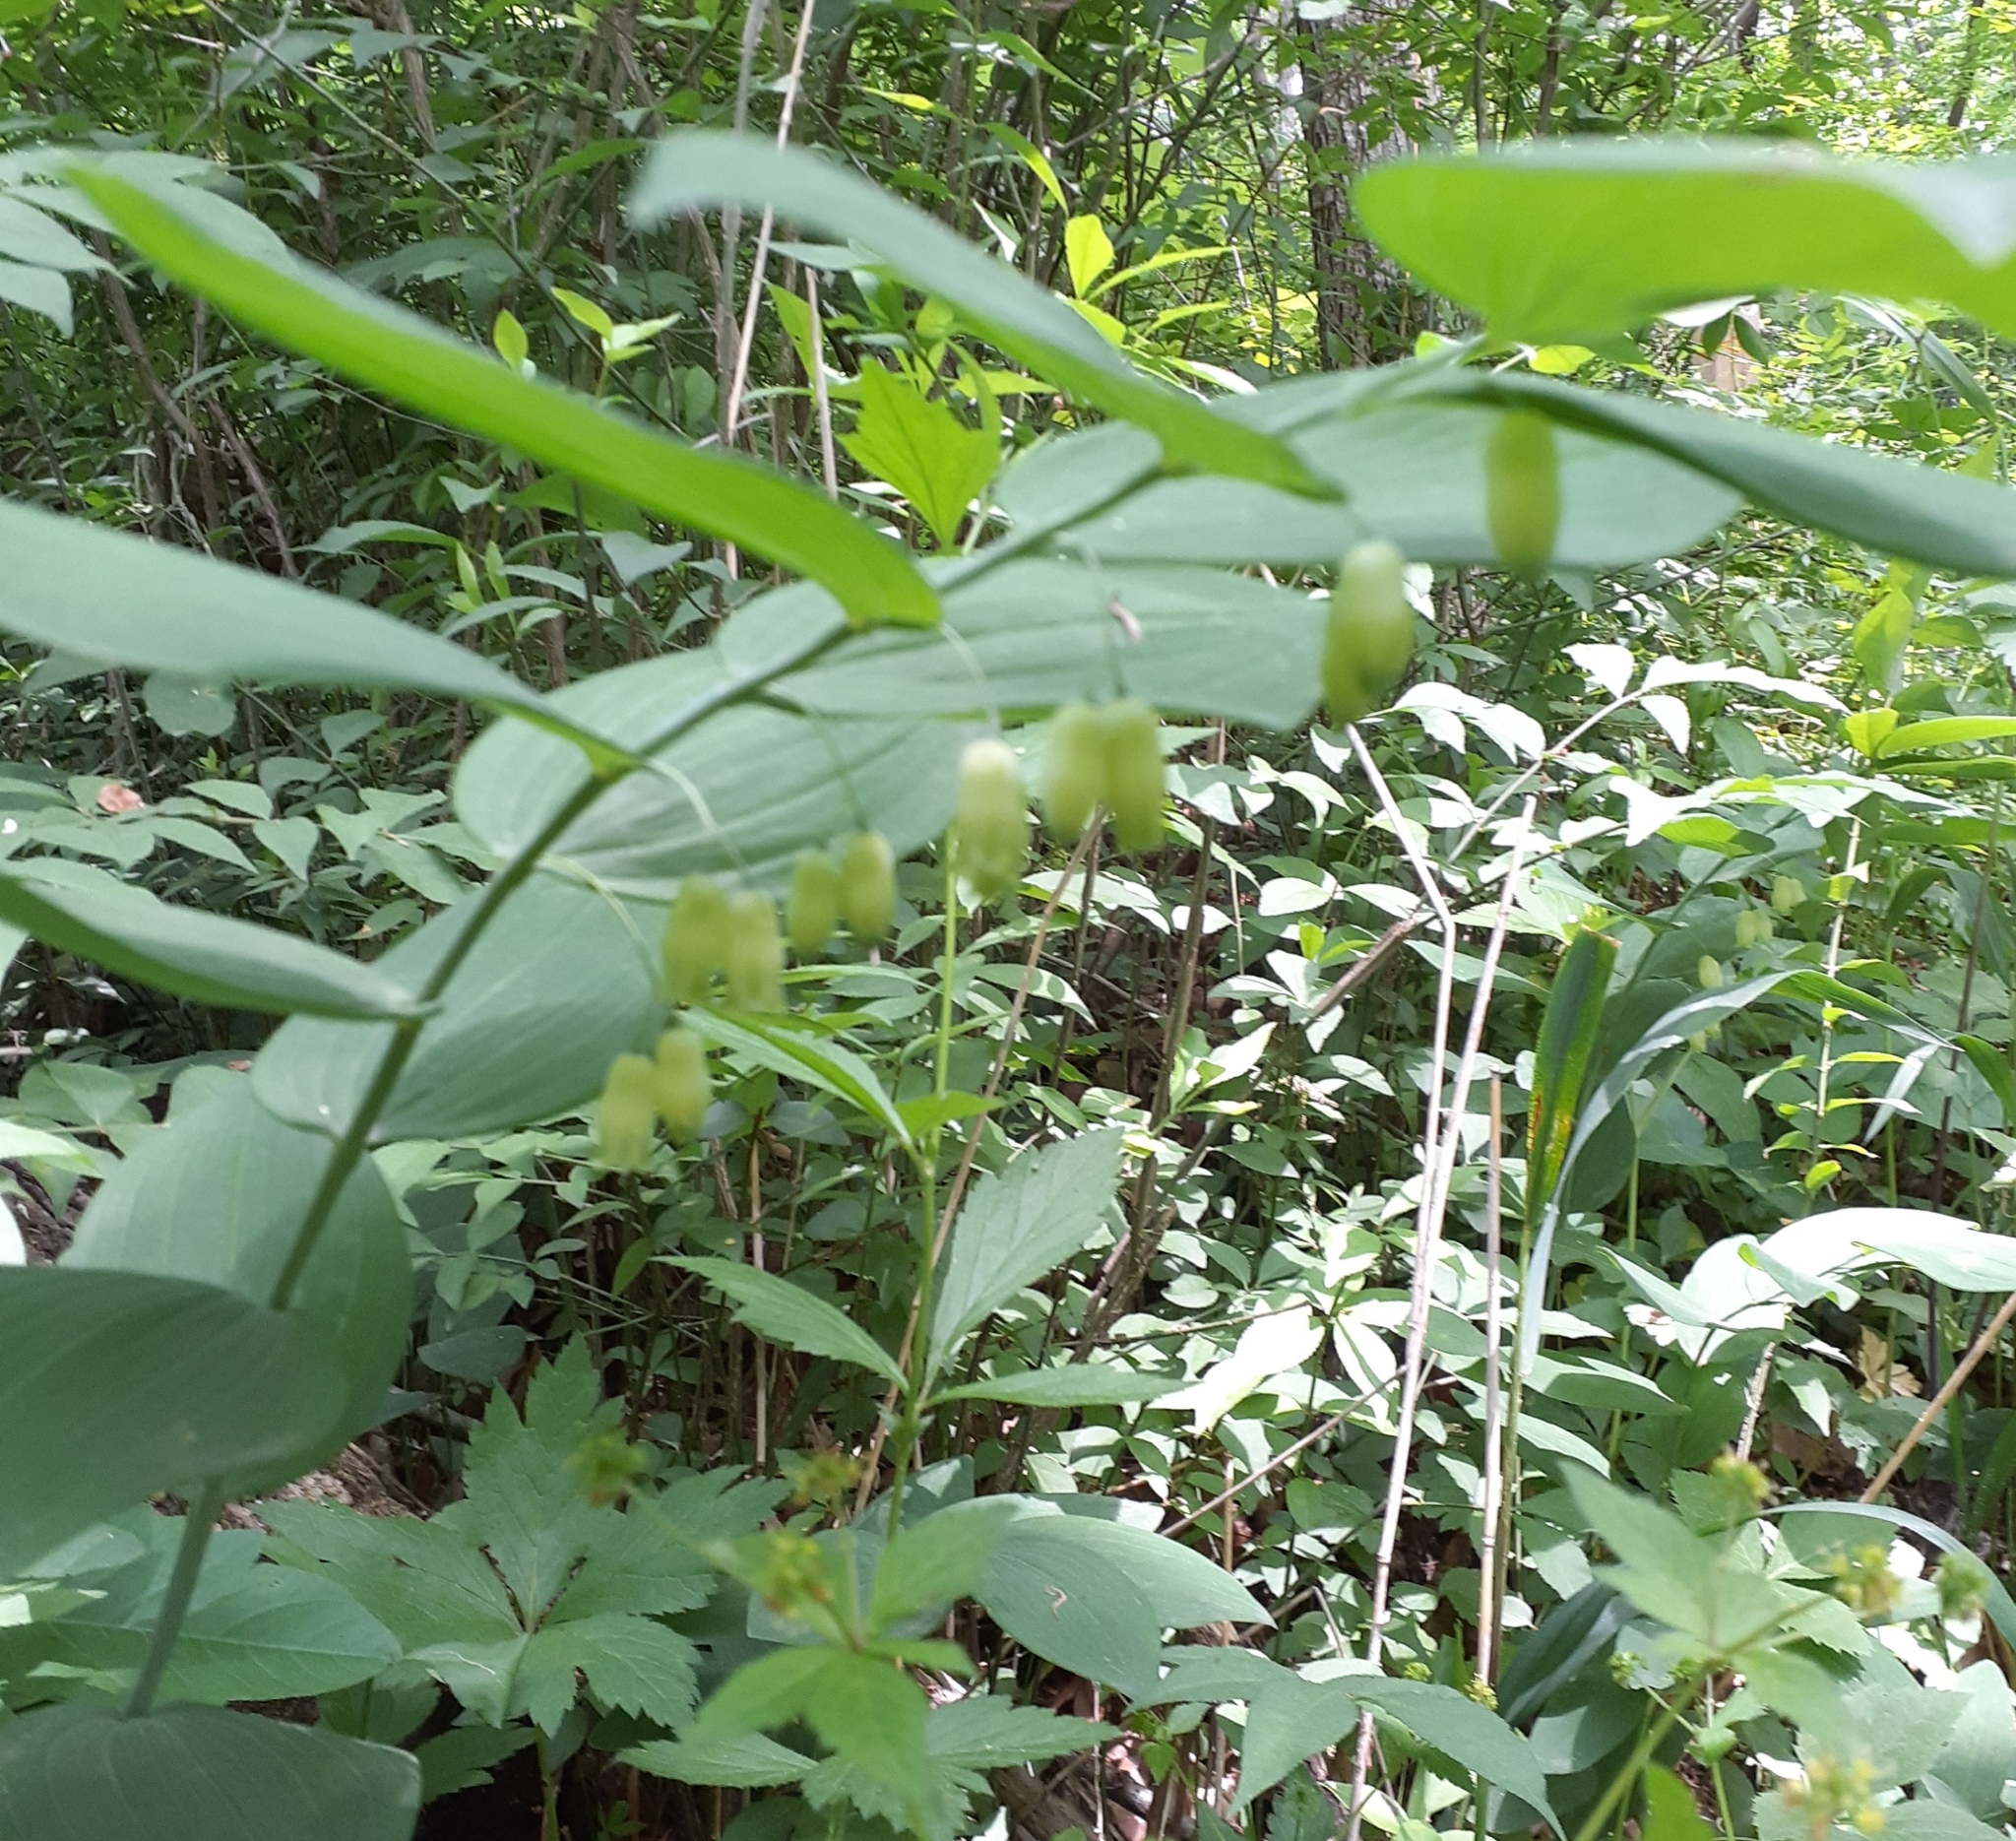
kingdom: Plantae
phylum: Tracheophyta
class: Liliopsida
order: Asparagales
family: Asparagaceae
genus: Polygonatum
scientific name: Polygonatum biflorum
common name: American solomon's-seal
